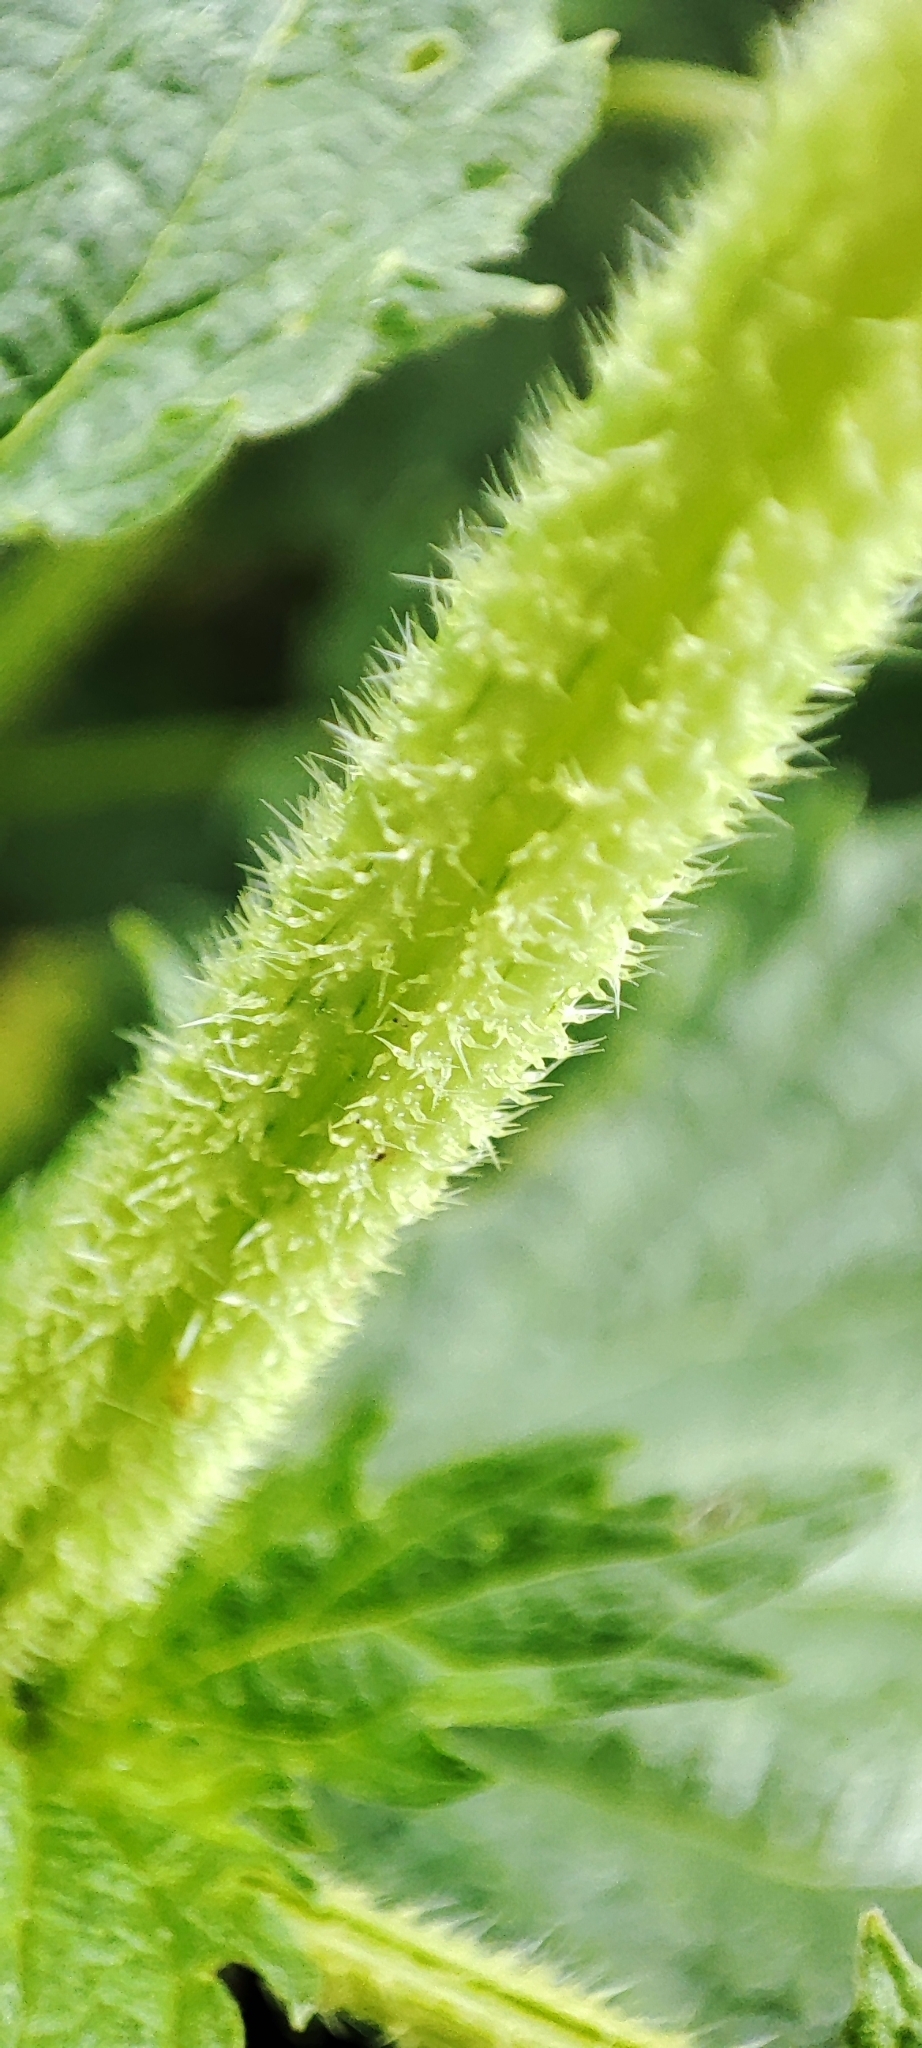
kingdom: Plantae
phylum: Tracheophyta
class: Magnoliopsida
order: Rosales
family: Urticaceae
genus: Urtica
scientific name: Urtica dioica
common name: Common nettle
